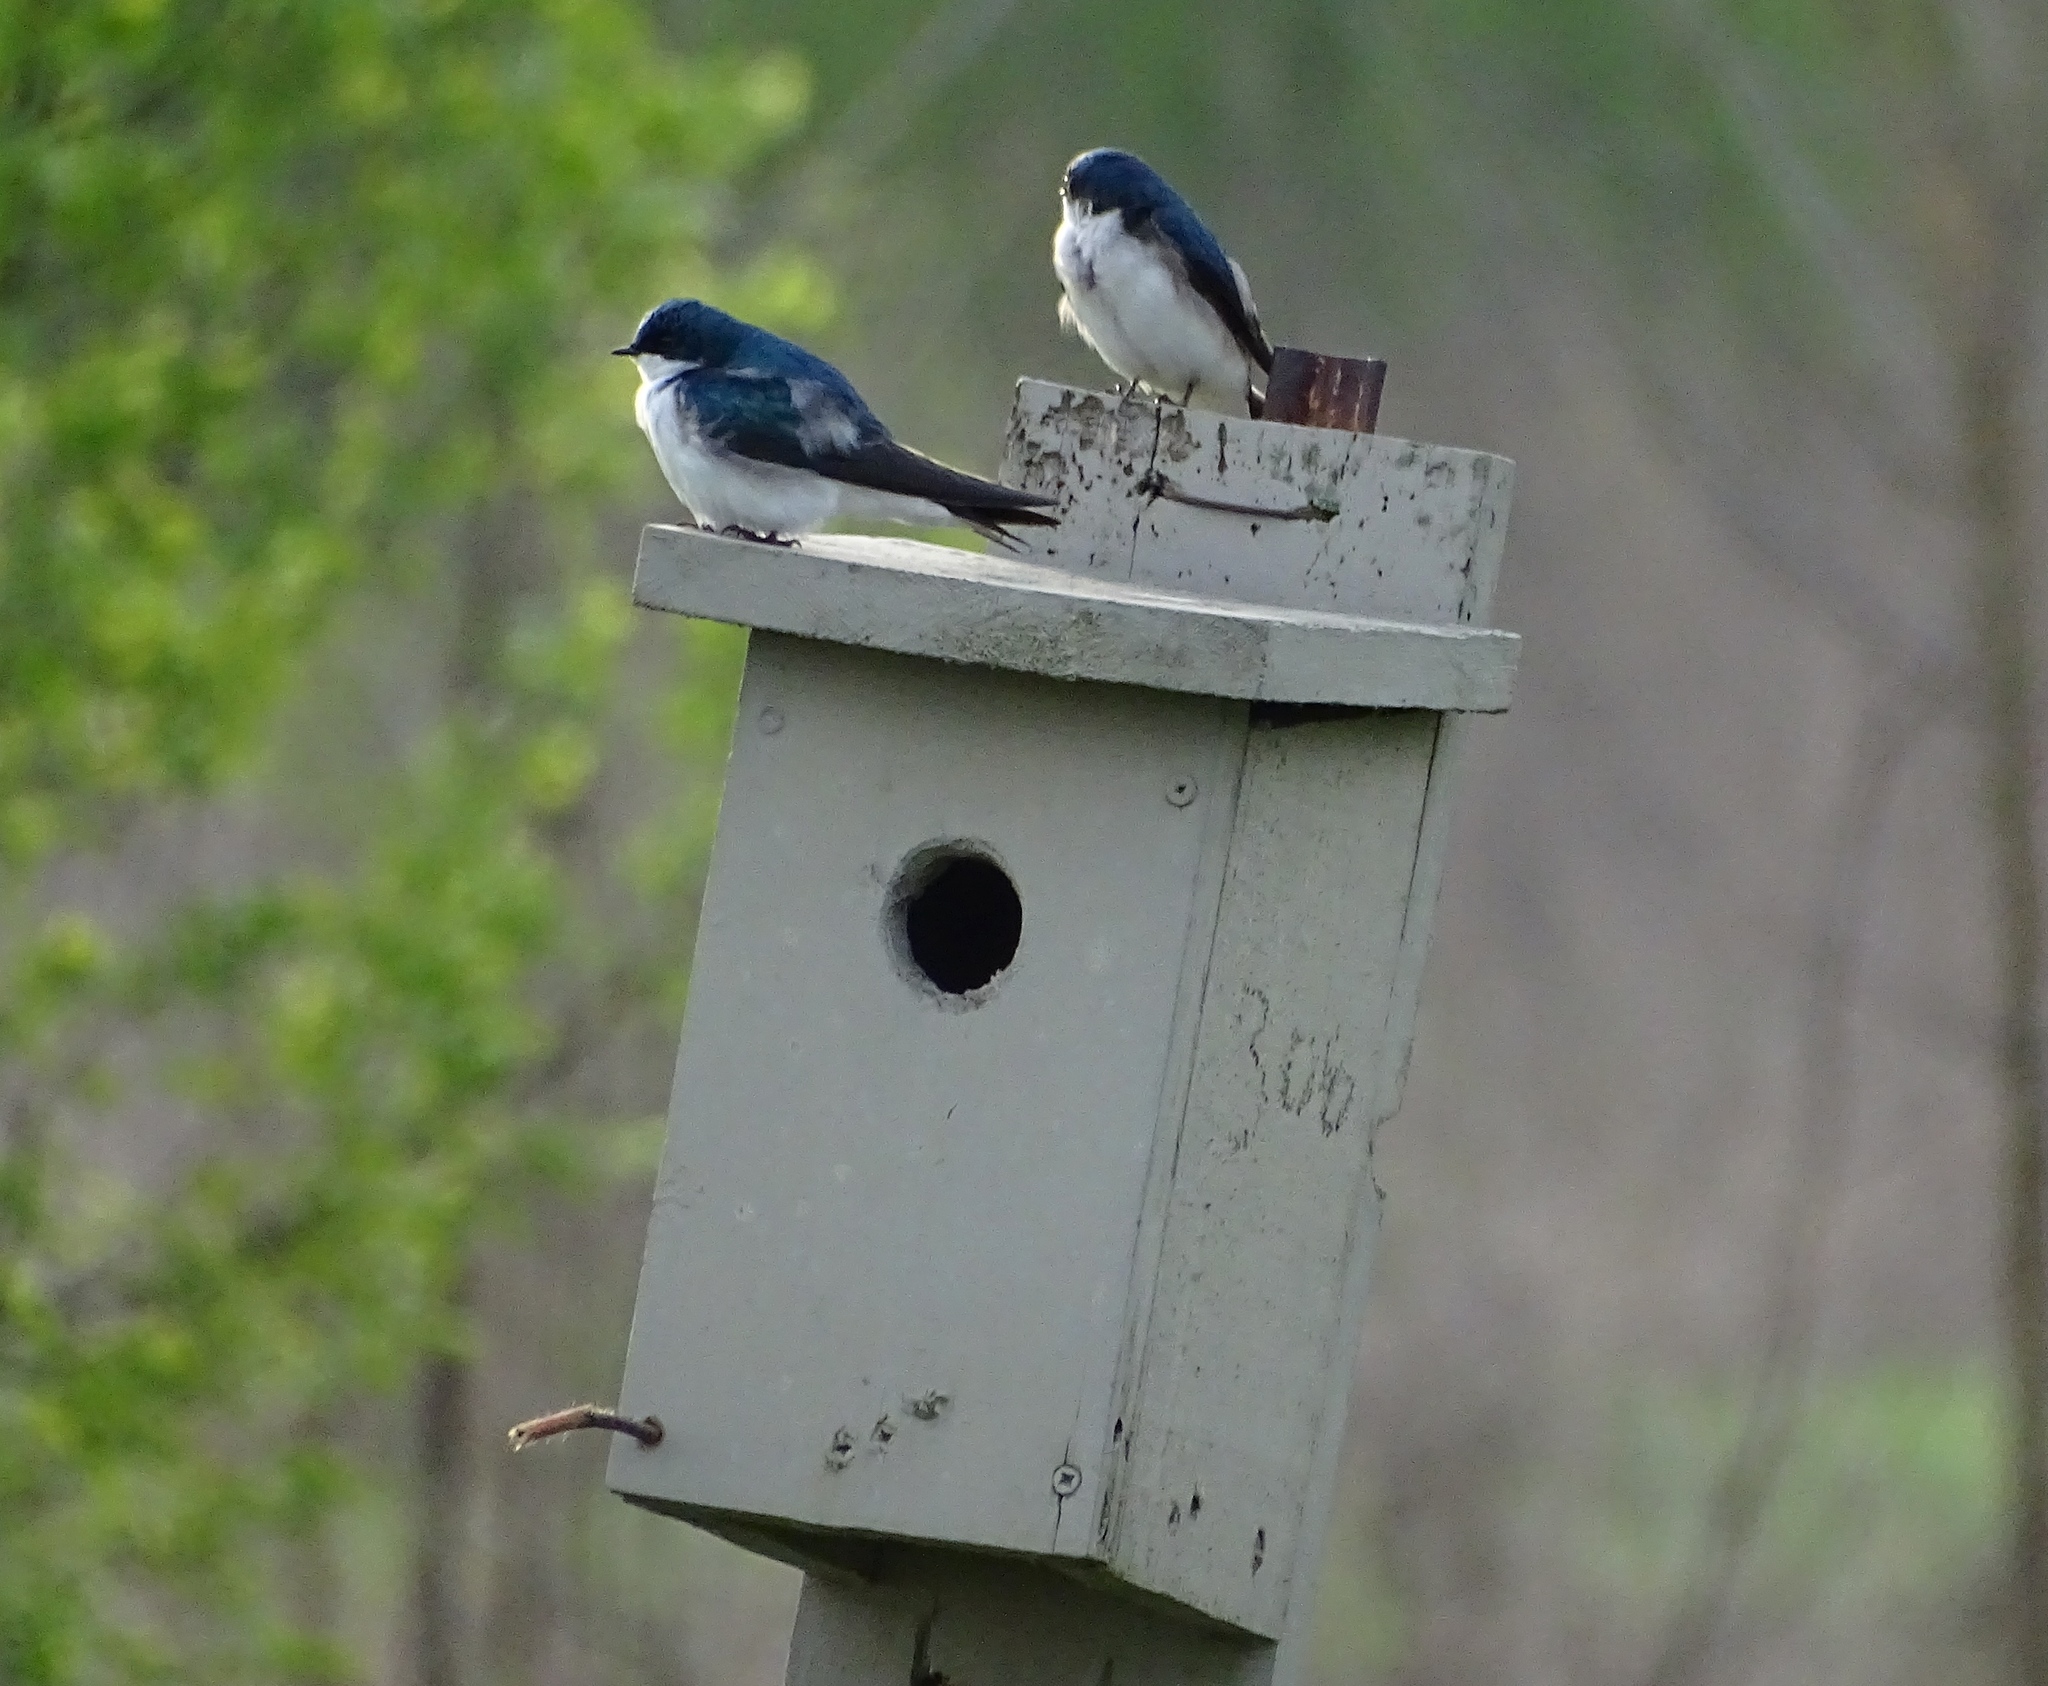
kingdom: Animalia
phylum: Chordata
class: Aves
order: Passeriformes
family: Hirundinidae
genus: Tachycineta
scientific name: Tachycineta bicolor
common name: Tree swallow
